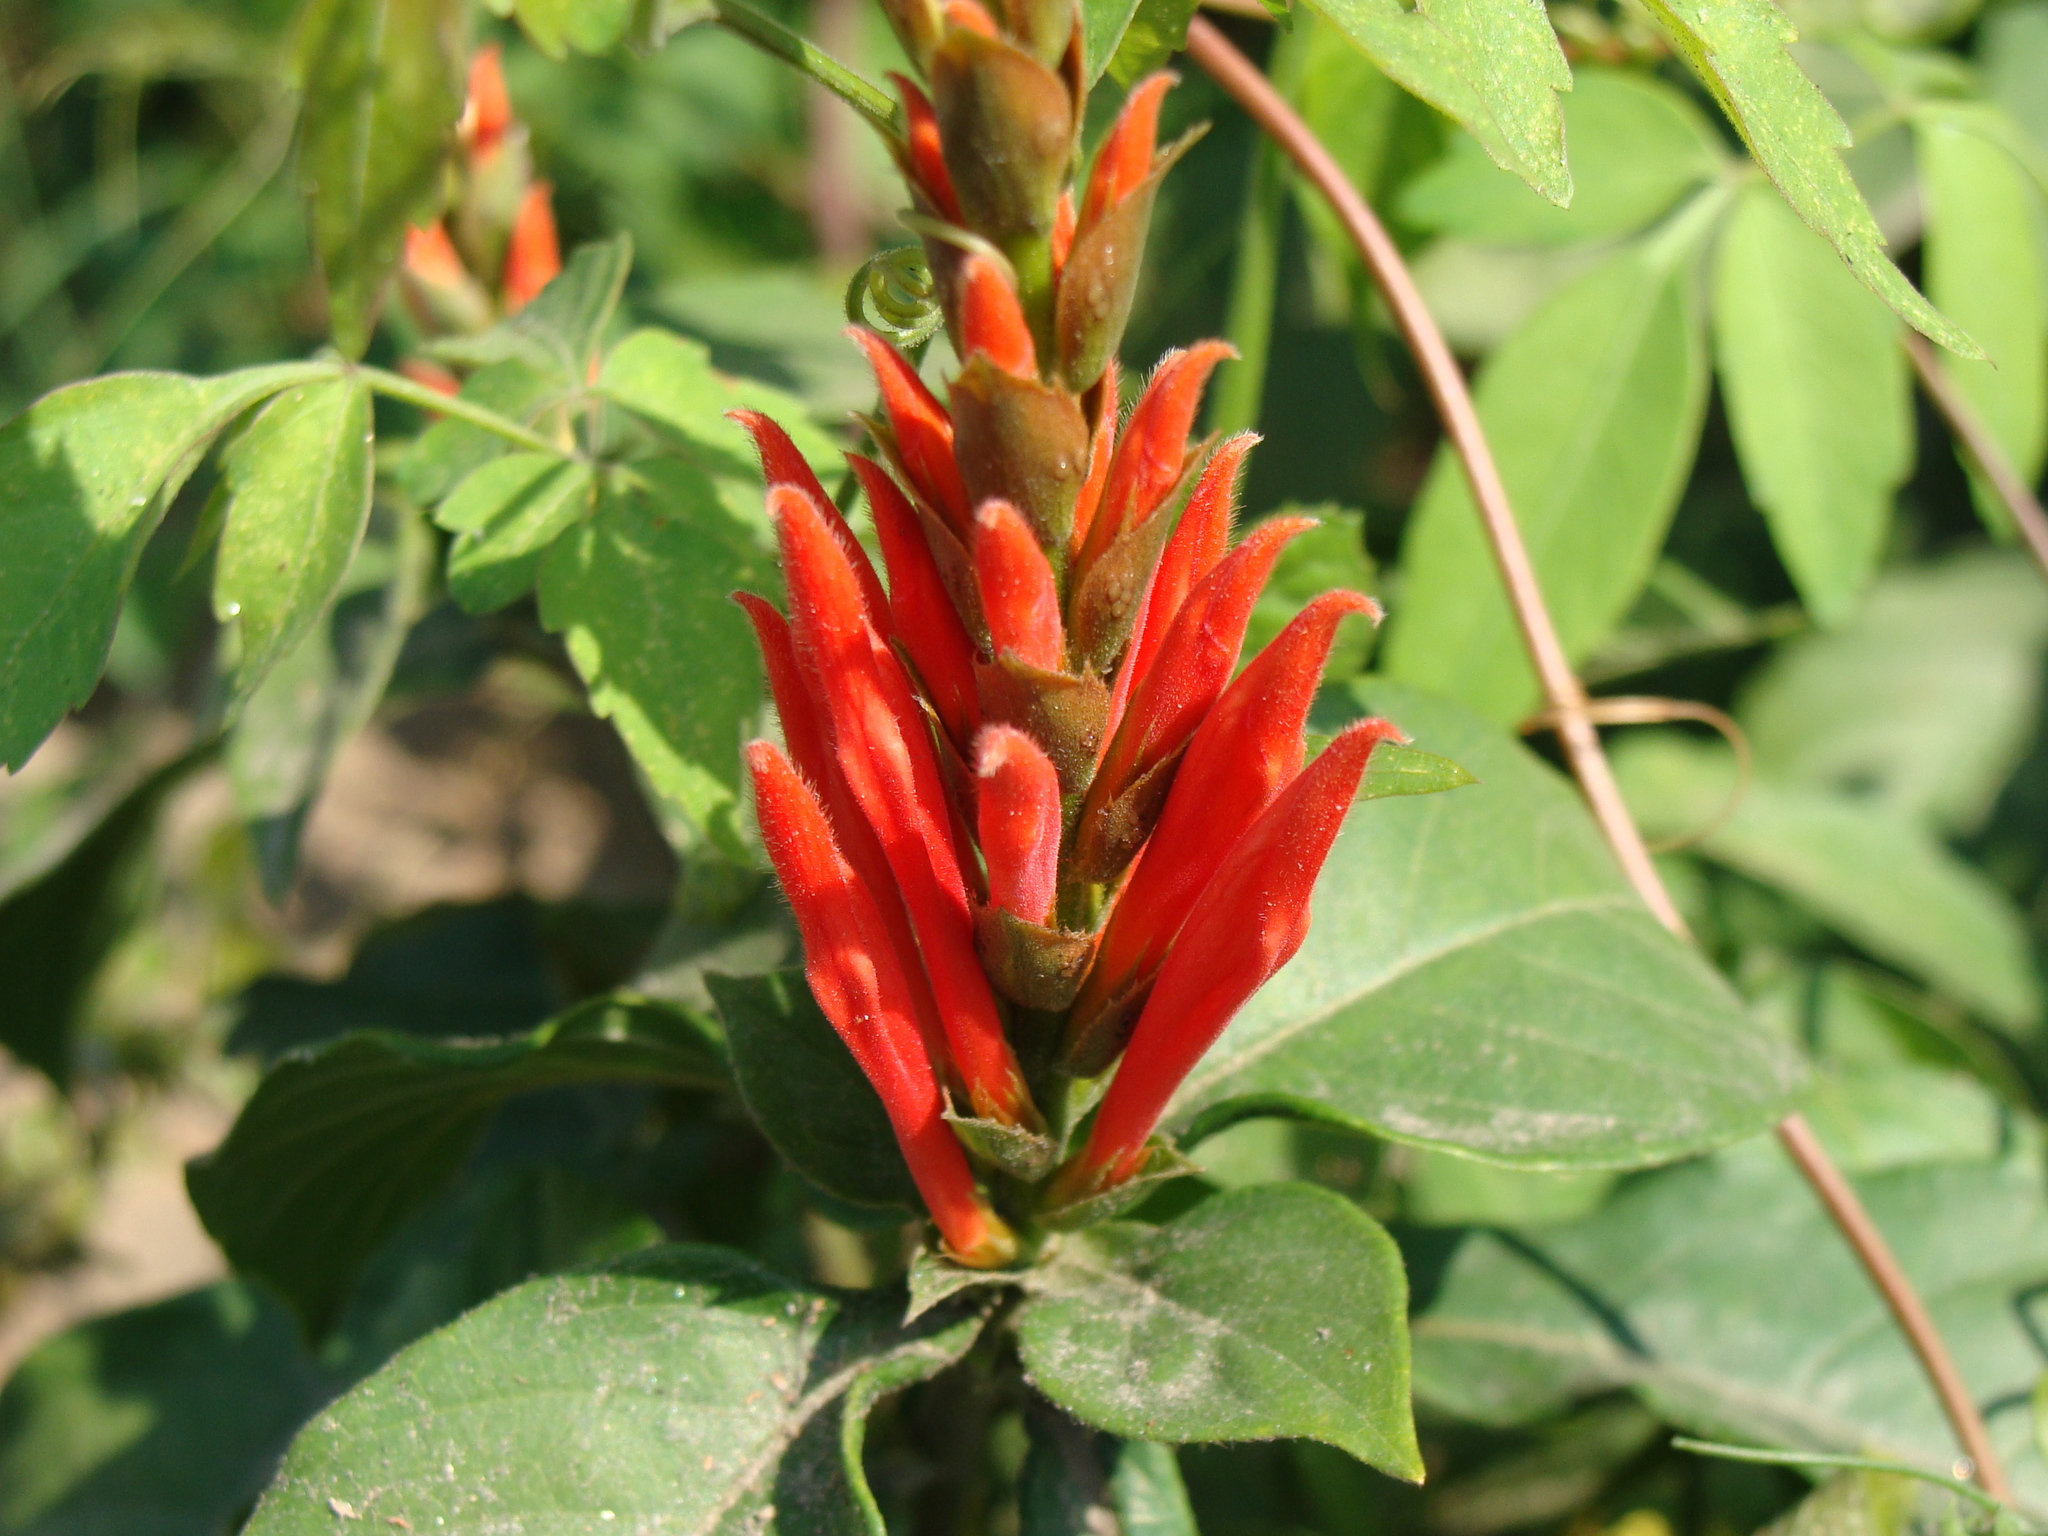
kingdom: Plantae
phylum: Tracheophyta
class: Magnoliopsida
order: Lamiales
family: Acanthaceae
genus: Aphelandra
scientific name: Aphelandra scabra
